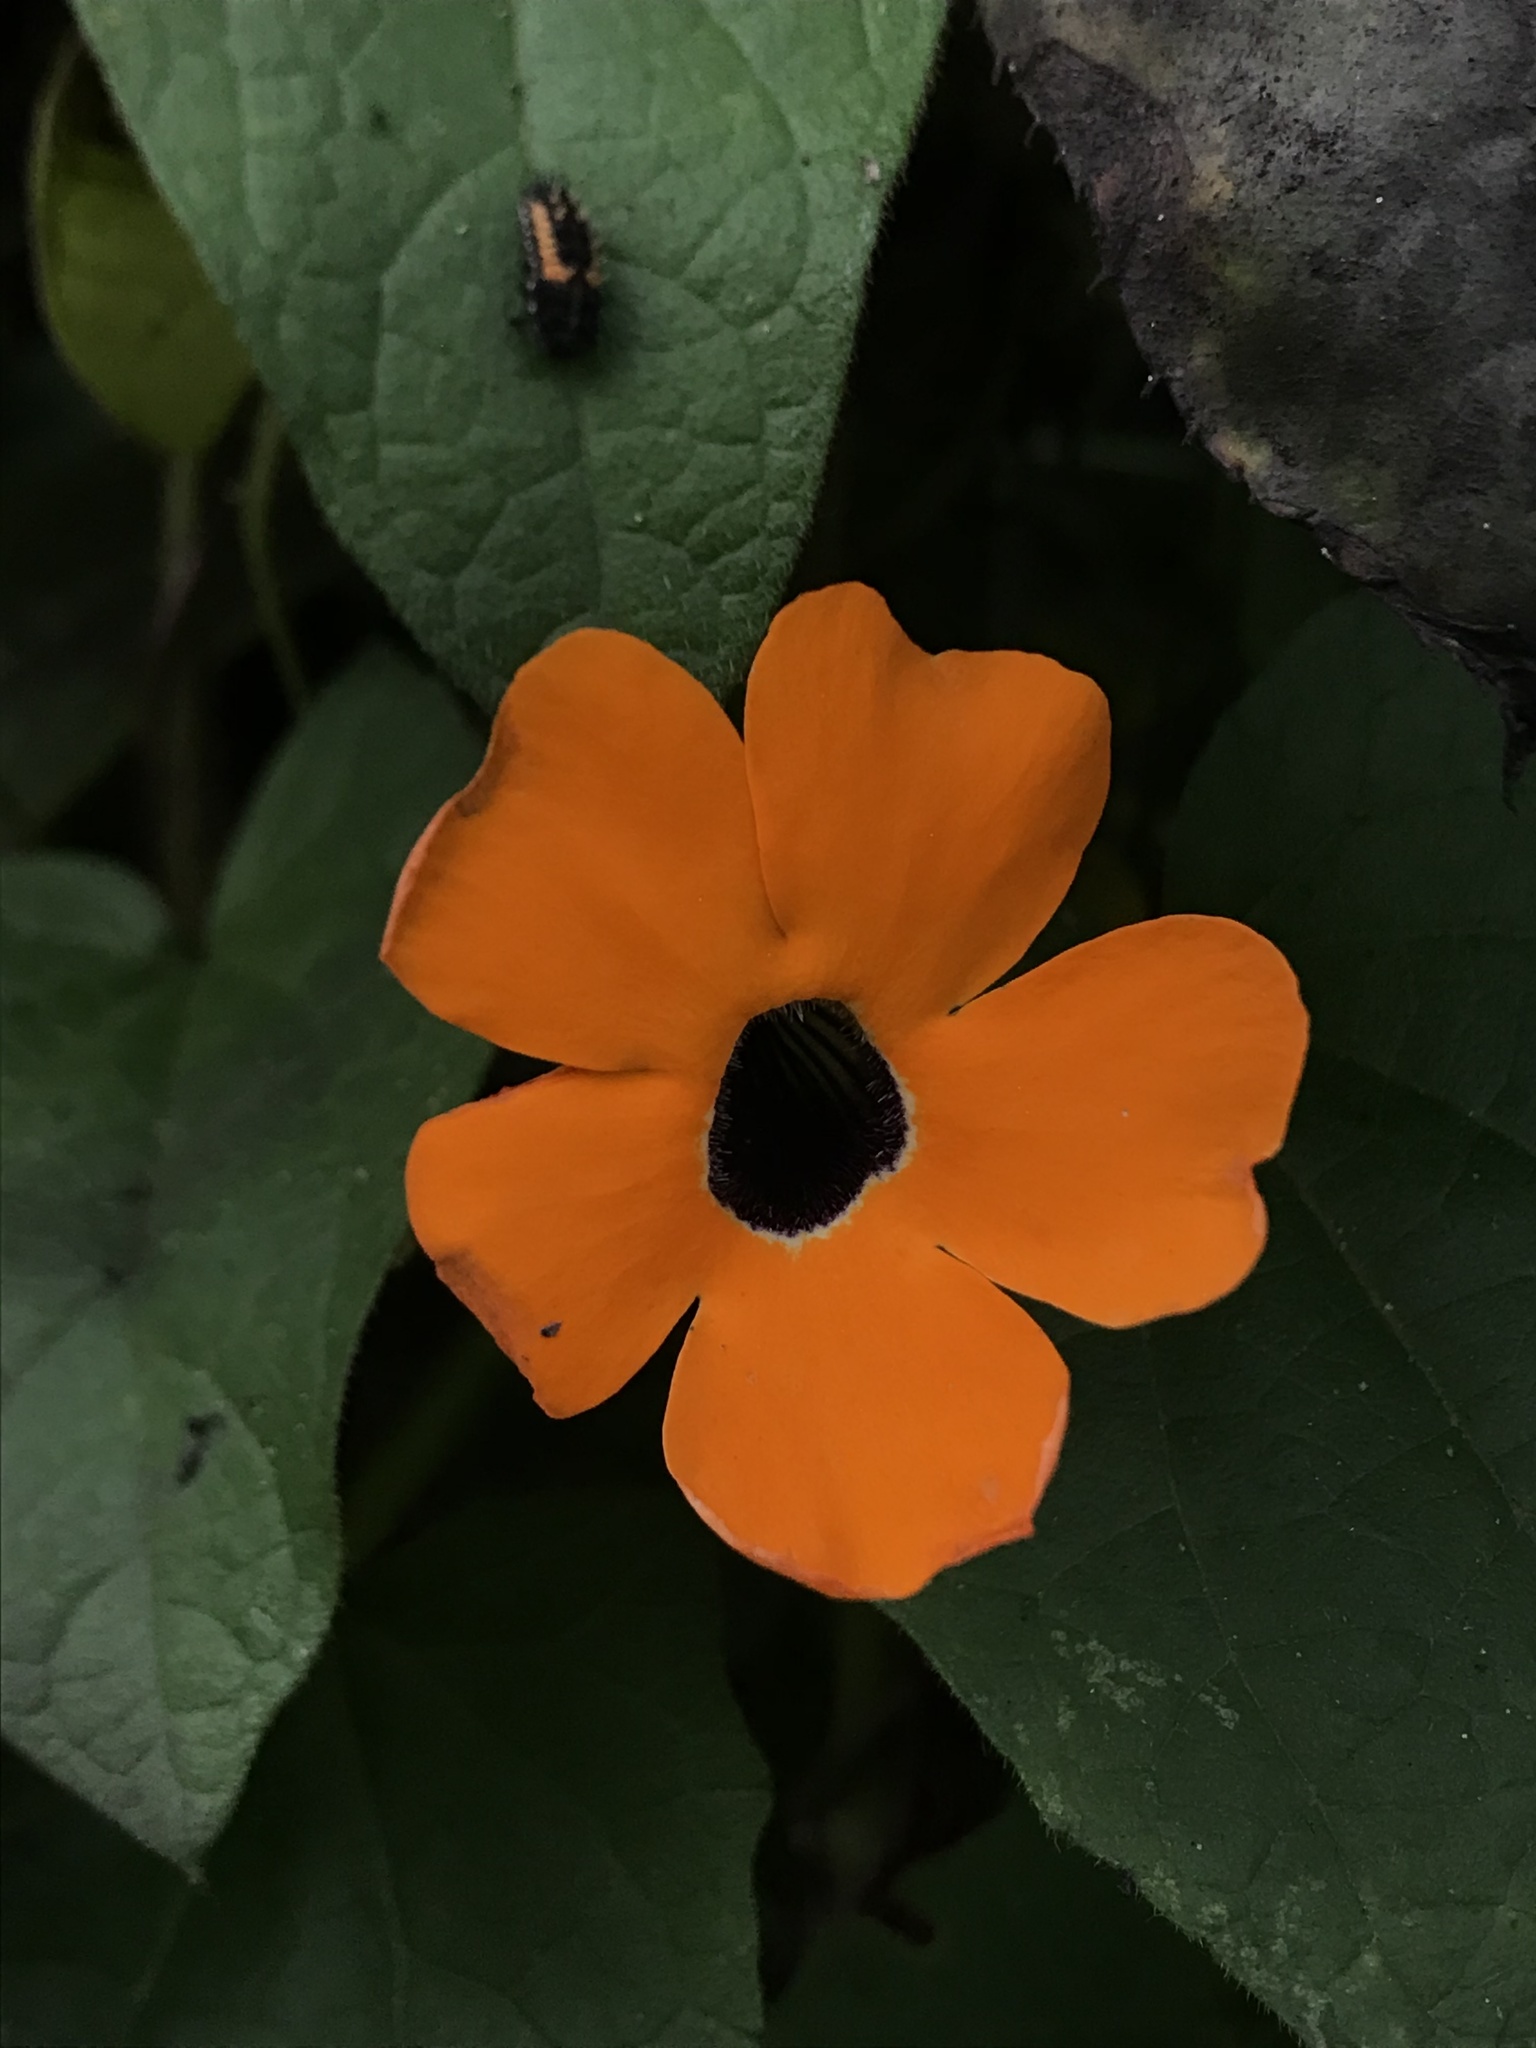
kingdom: Plantae
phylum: Tracheophyta
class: Magnoliopsida
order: Lamiales
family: Acanthaceae
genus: Thunbergia
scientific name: Thunbergia alata
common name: Blackeyed susan vine
